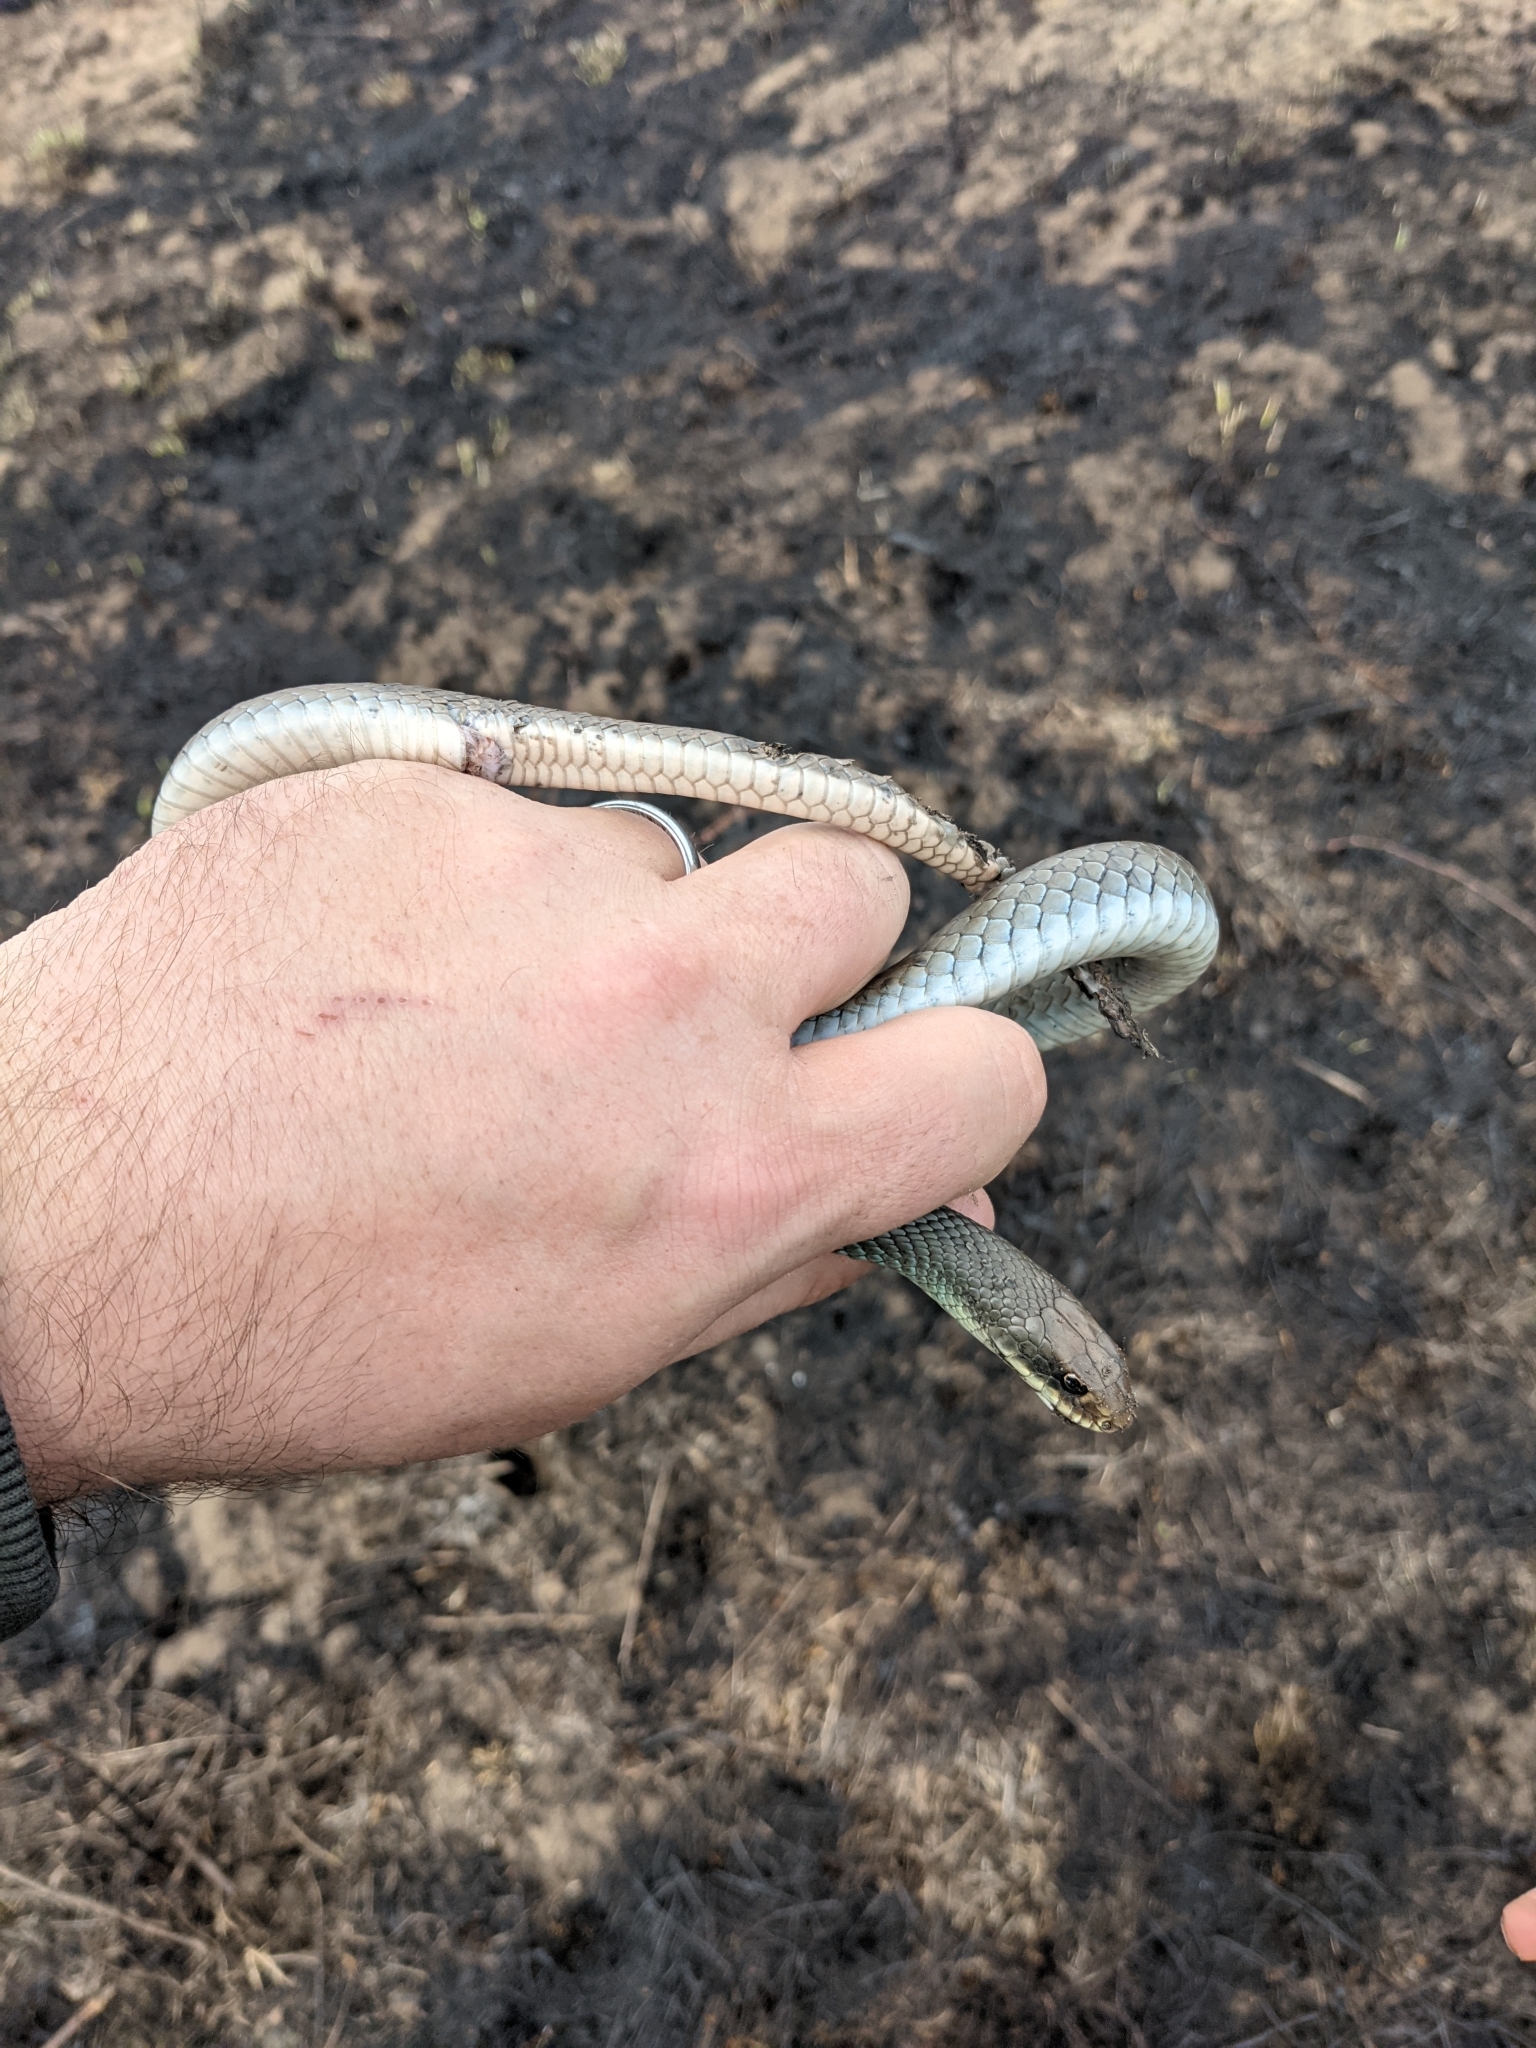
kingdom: Animalia
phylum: Chordata
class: Squamata
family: Colubridae
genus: Coluber
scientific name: Coluber constrictor
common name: Eastern racer
